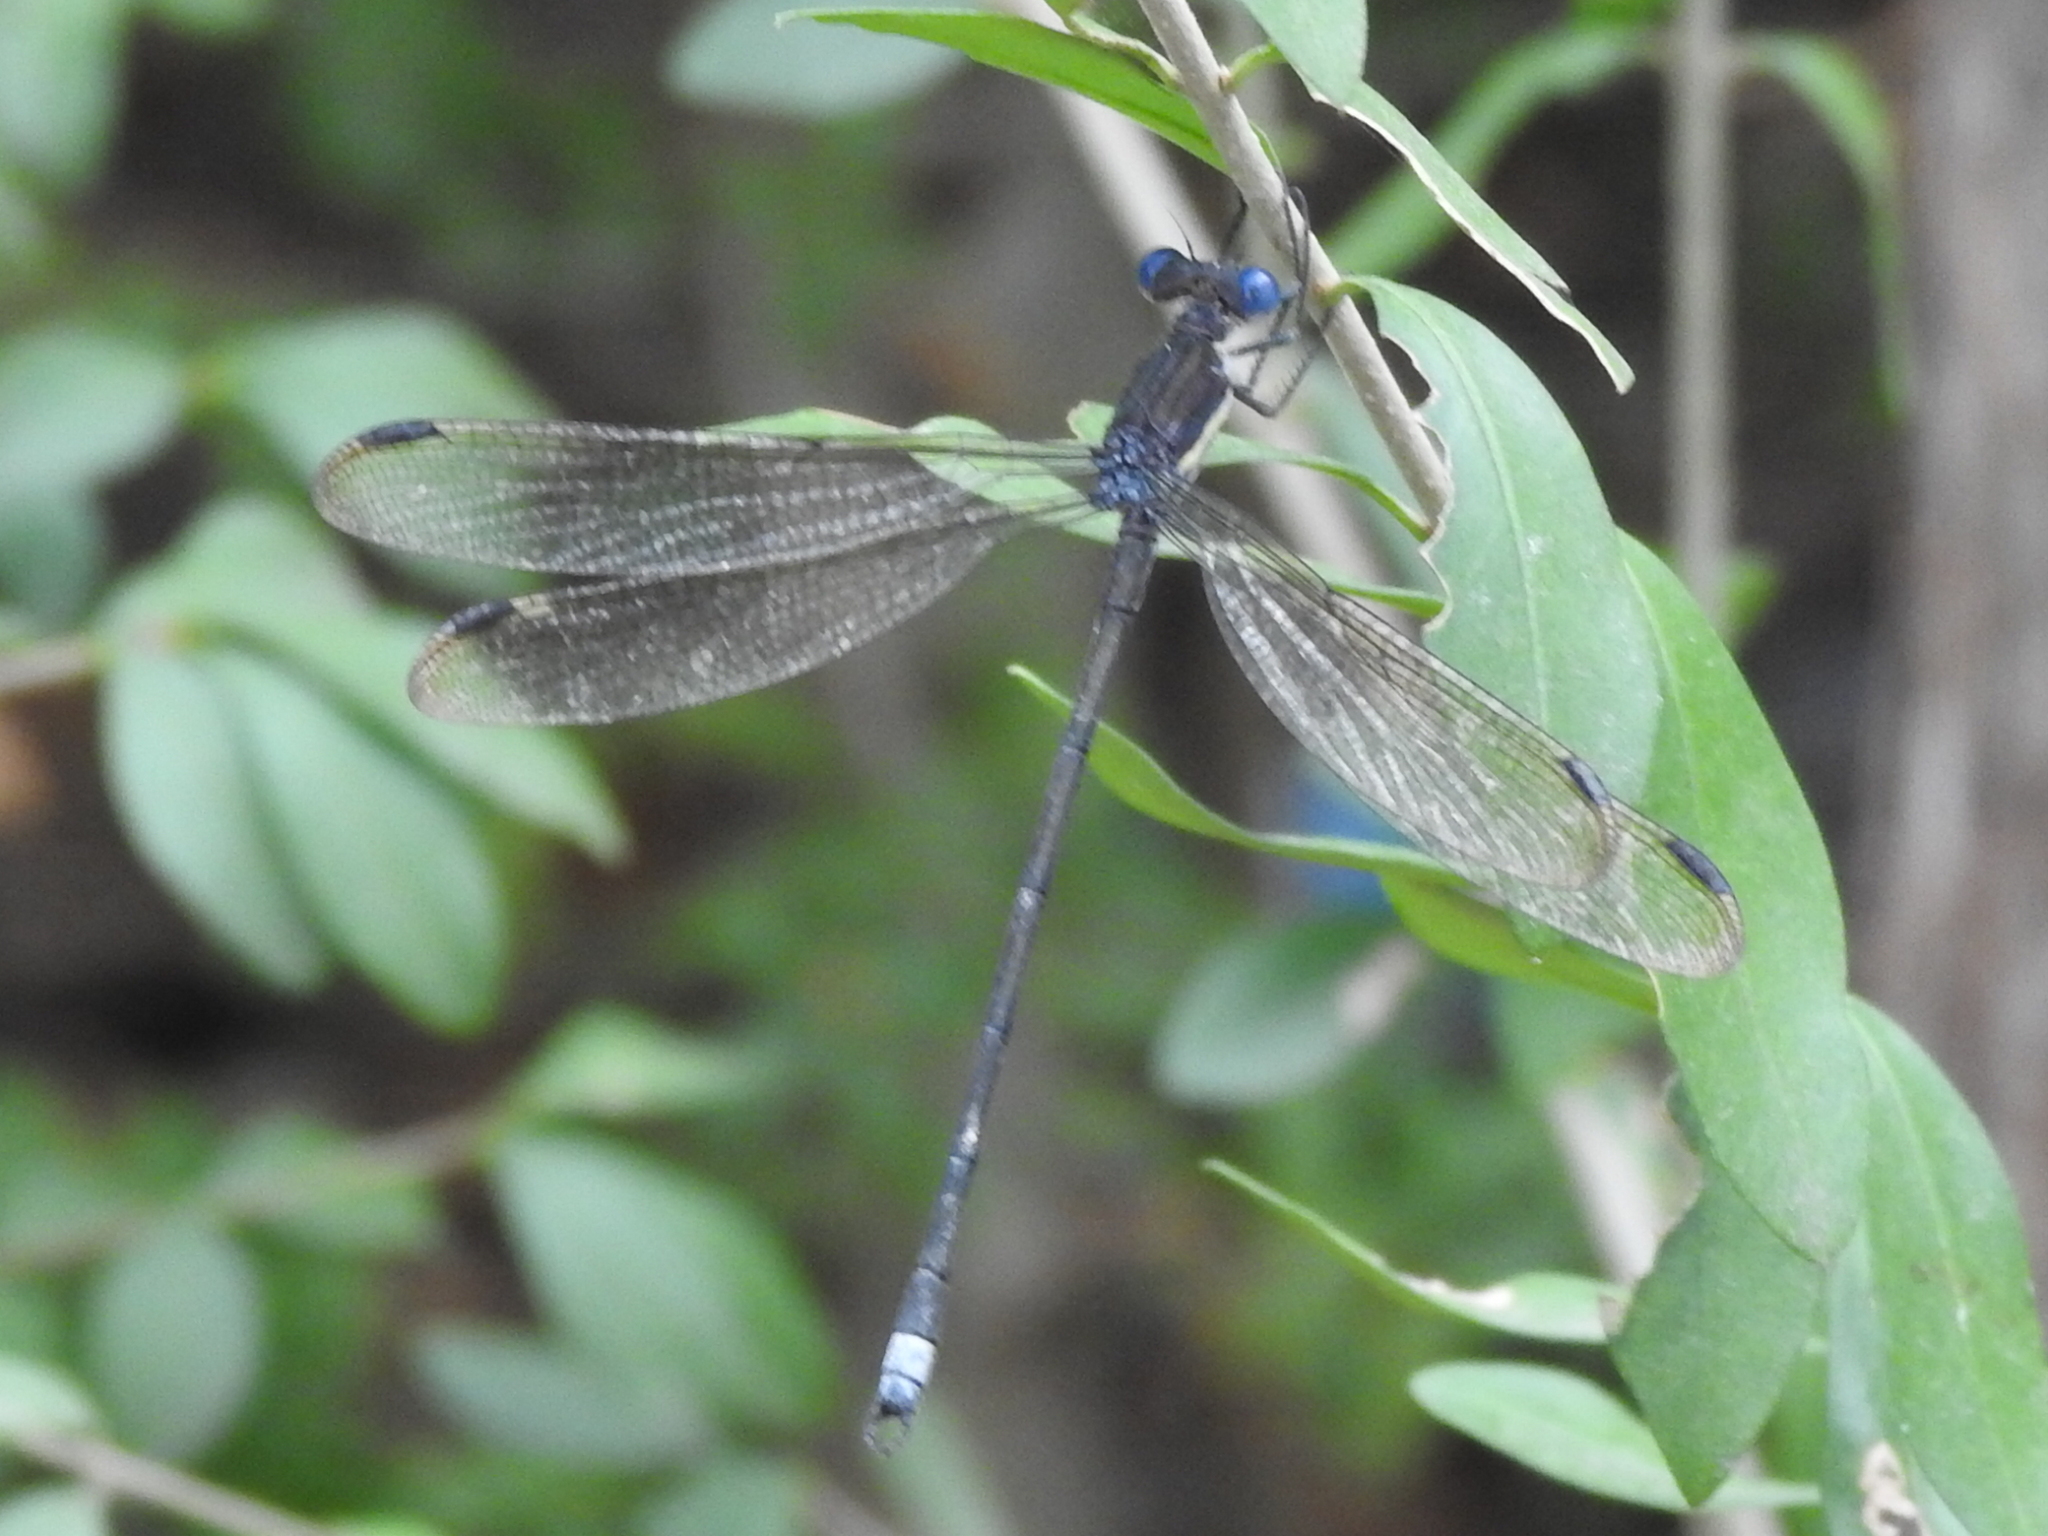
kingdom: Animalia
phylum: Arthropoda
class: Insecta
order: Odonata
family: Lestidae
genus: Archilestes
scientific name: Archilestes grandis
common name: Great spreadwing
